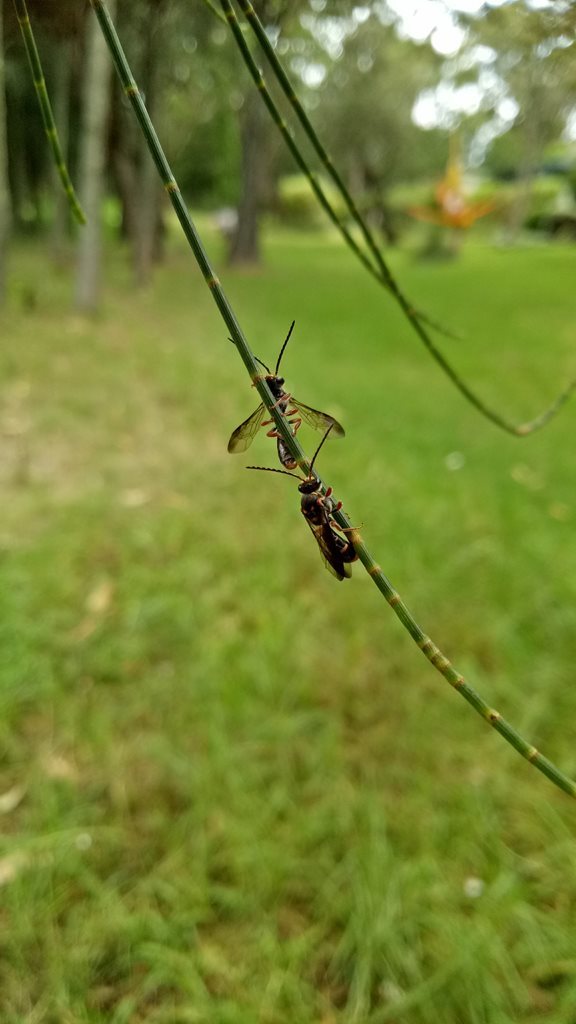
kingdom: Animalia
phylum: Arthropoda
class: Insecta
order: Hymenoptera
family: Halictidae
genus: Lasioglossum
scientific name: Lasioglossum peraustrale
